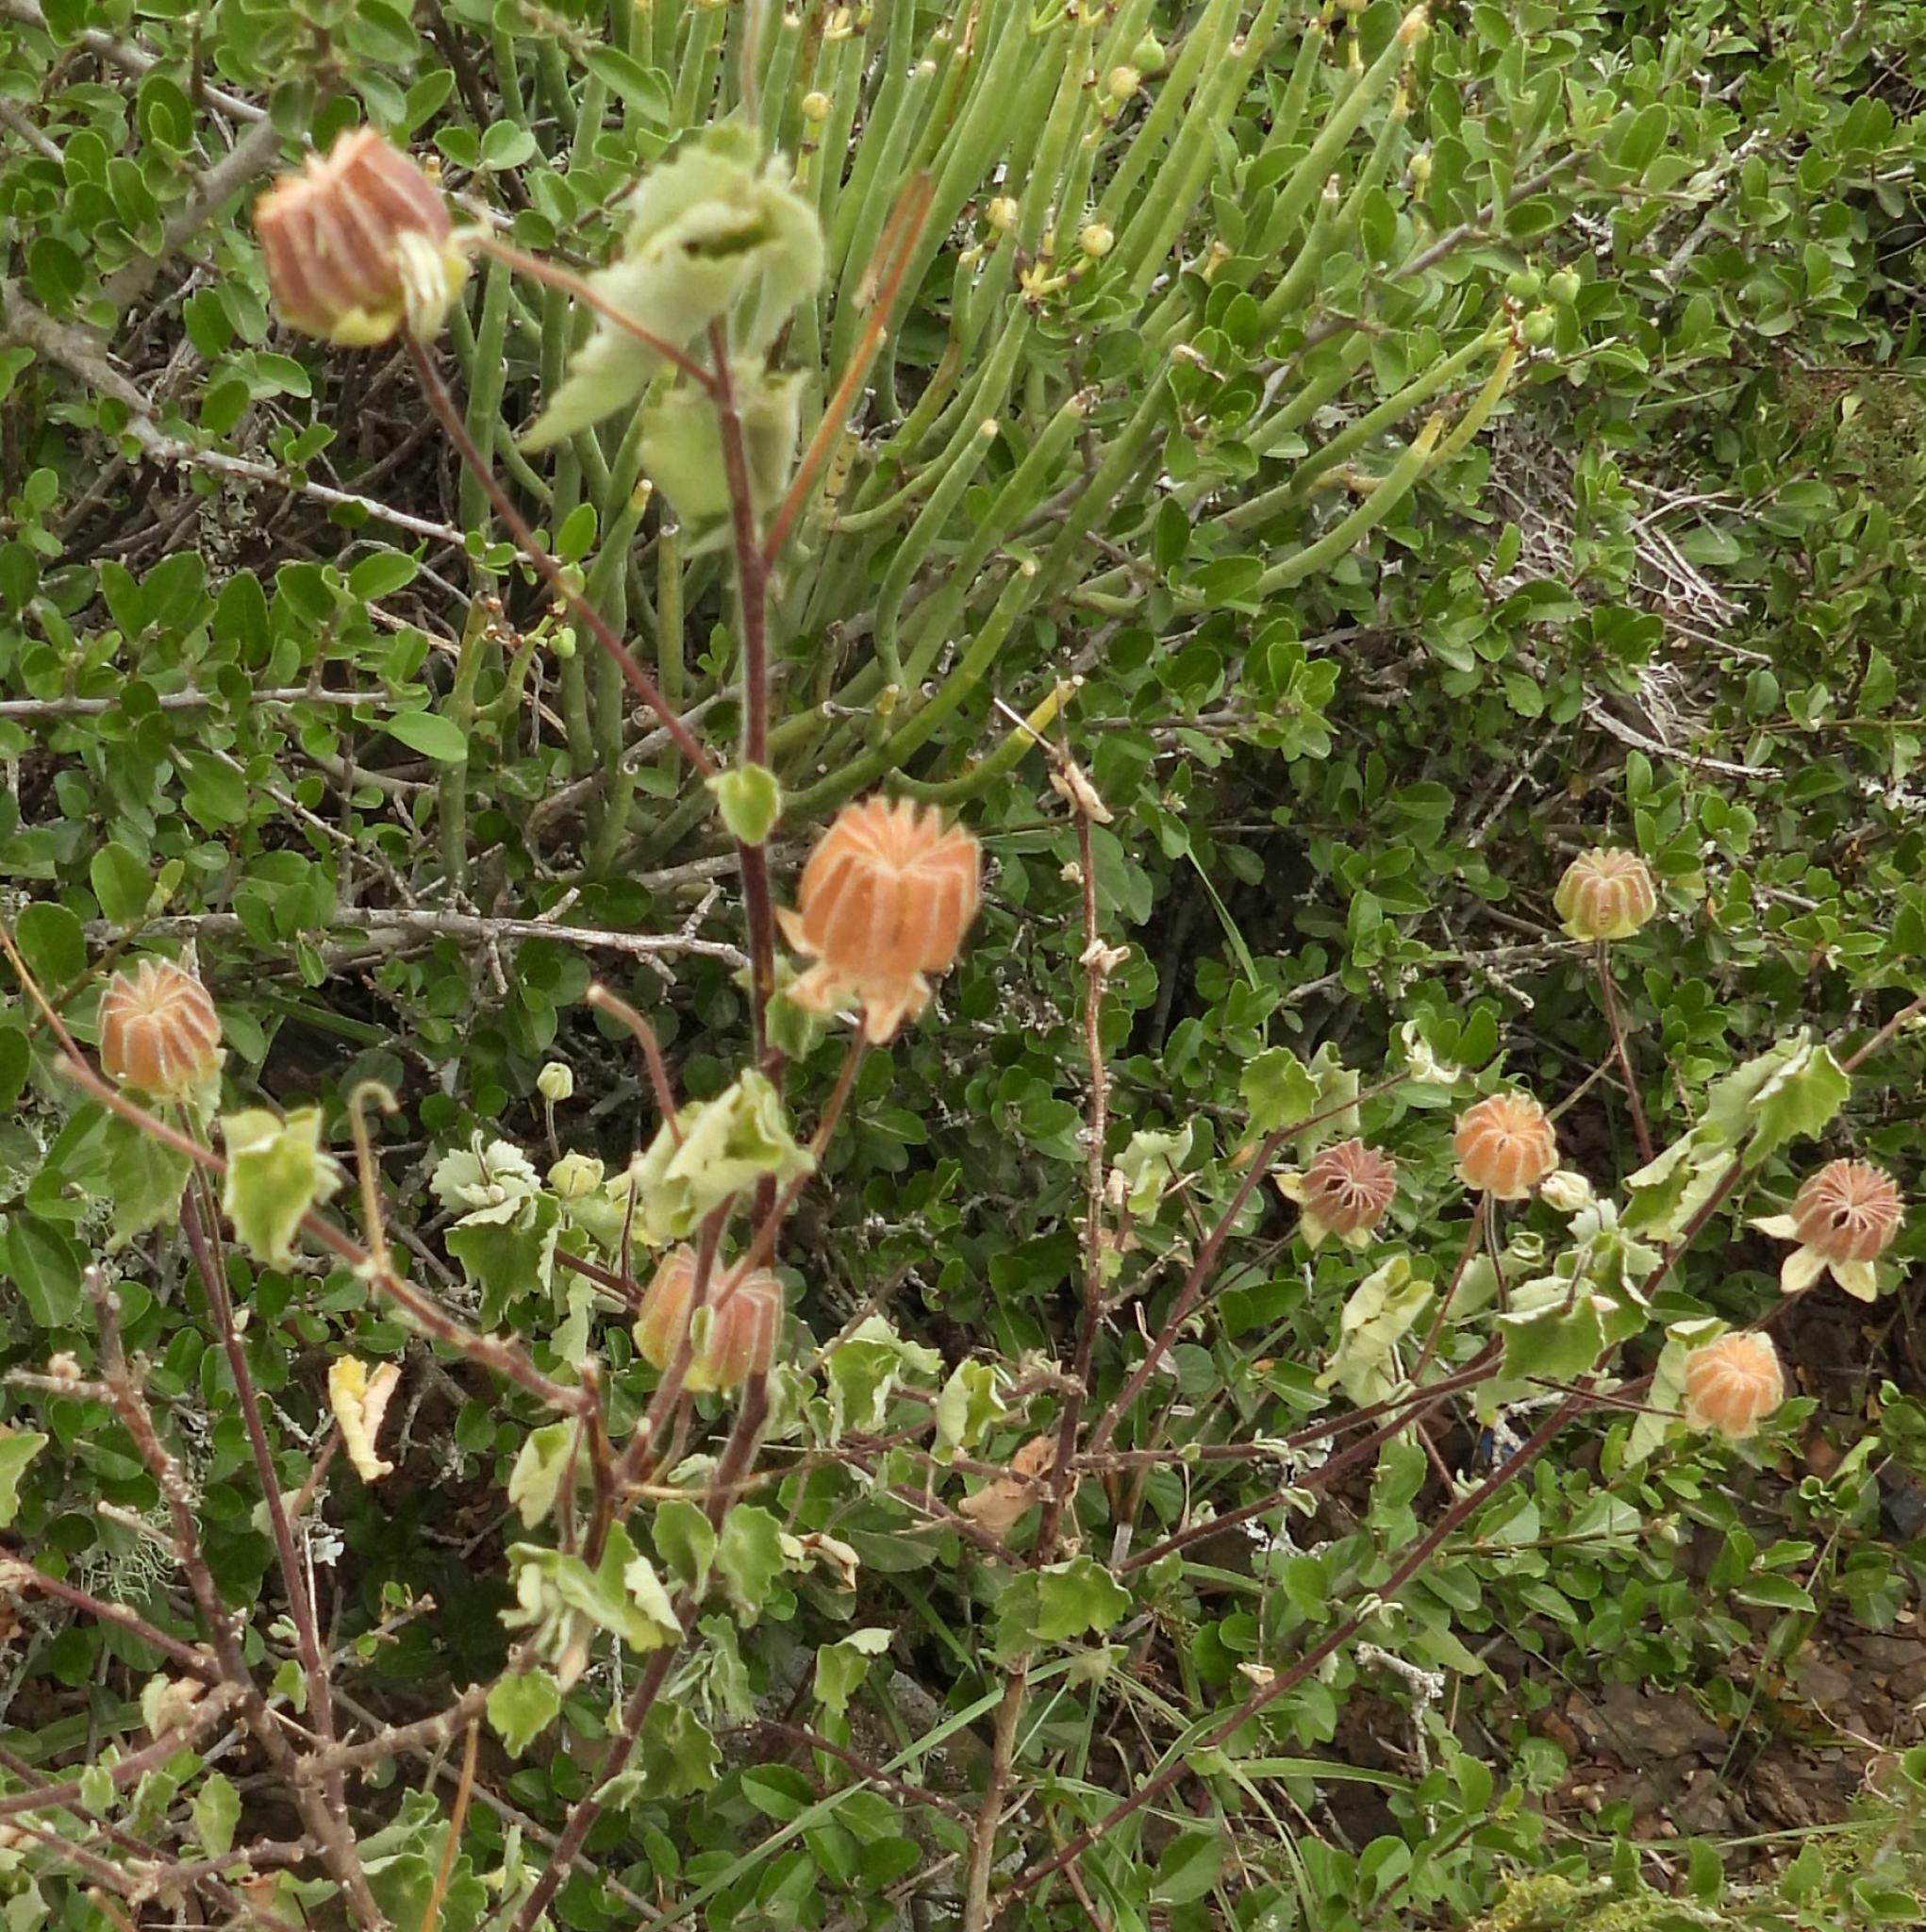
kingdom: Plantae
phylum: Tracheophyta
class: Magnoliopsida
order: Malvales
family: Malvaceae
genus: Abutilon
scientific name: Abutilon sonneratianum
